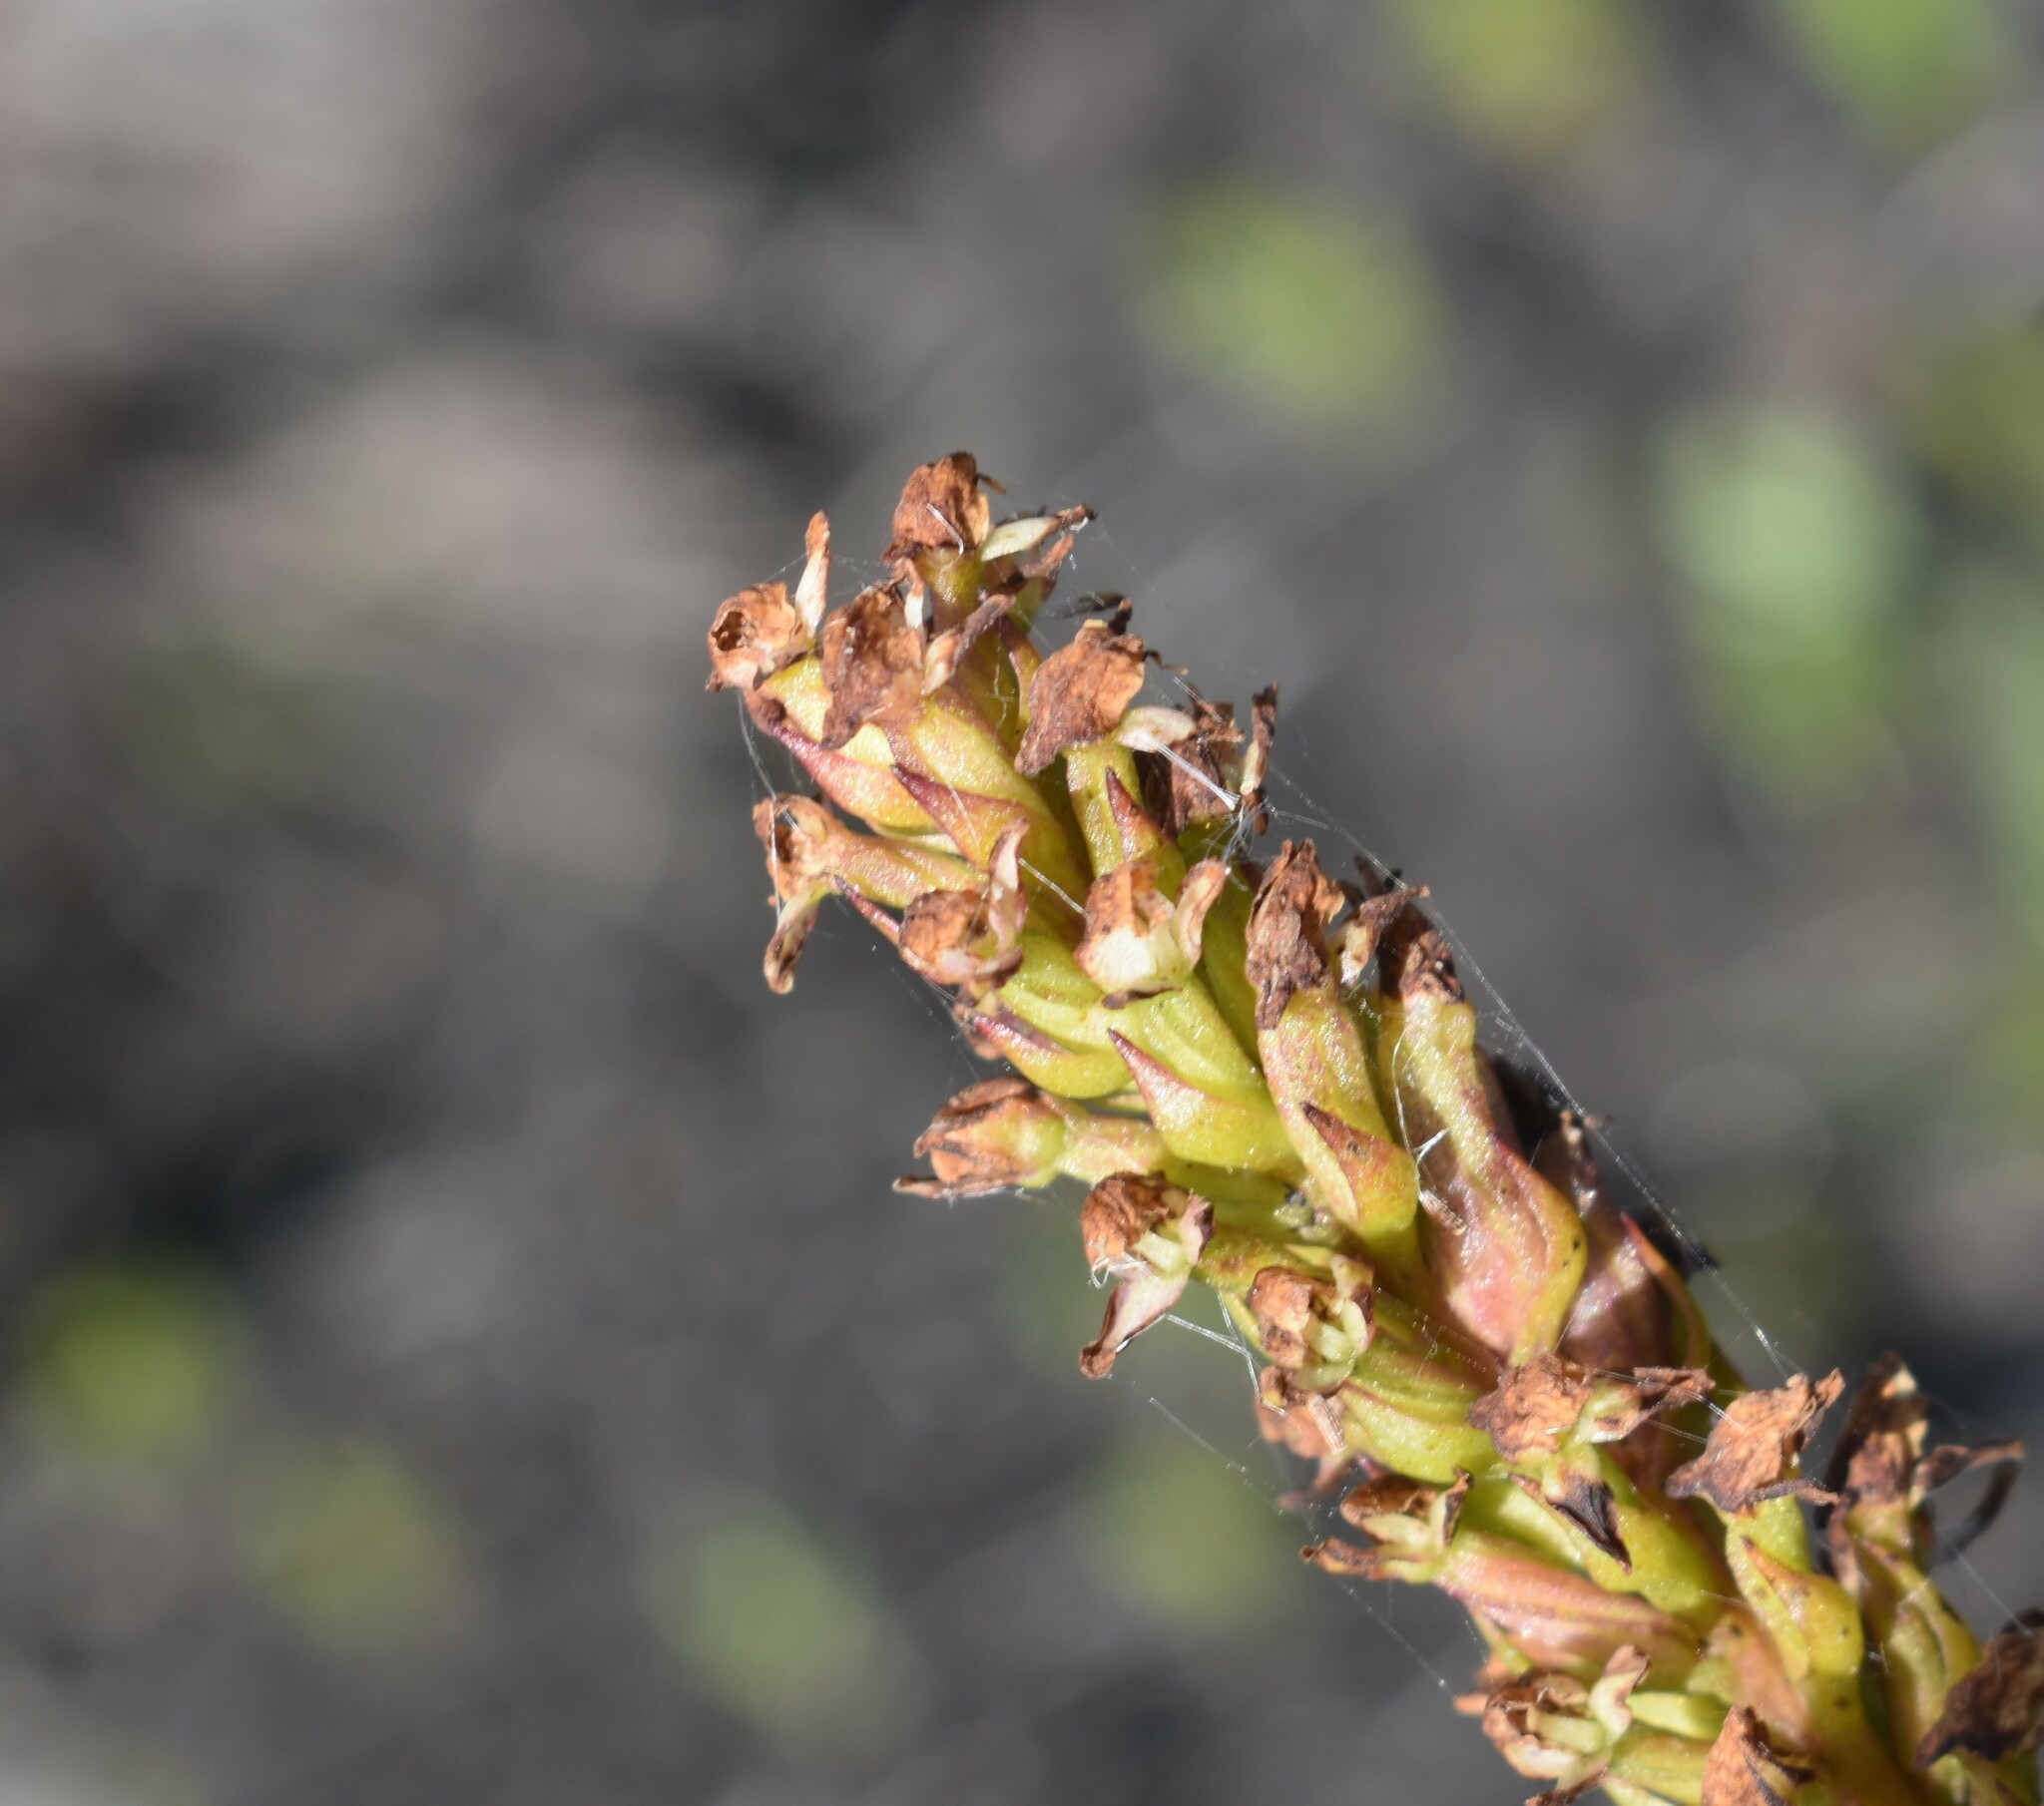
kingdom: Plantae
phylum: Tracheophyta
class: Liliopsida
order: Asparagales
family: Orchidaceae
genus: Disa
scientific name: Disa obtusa
